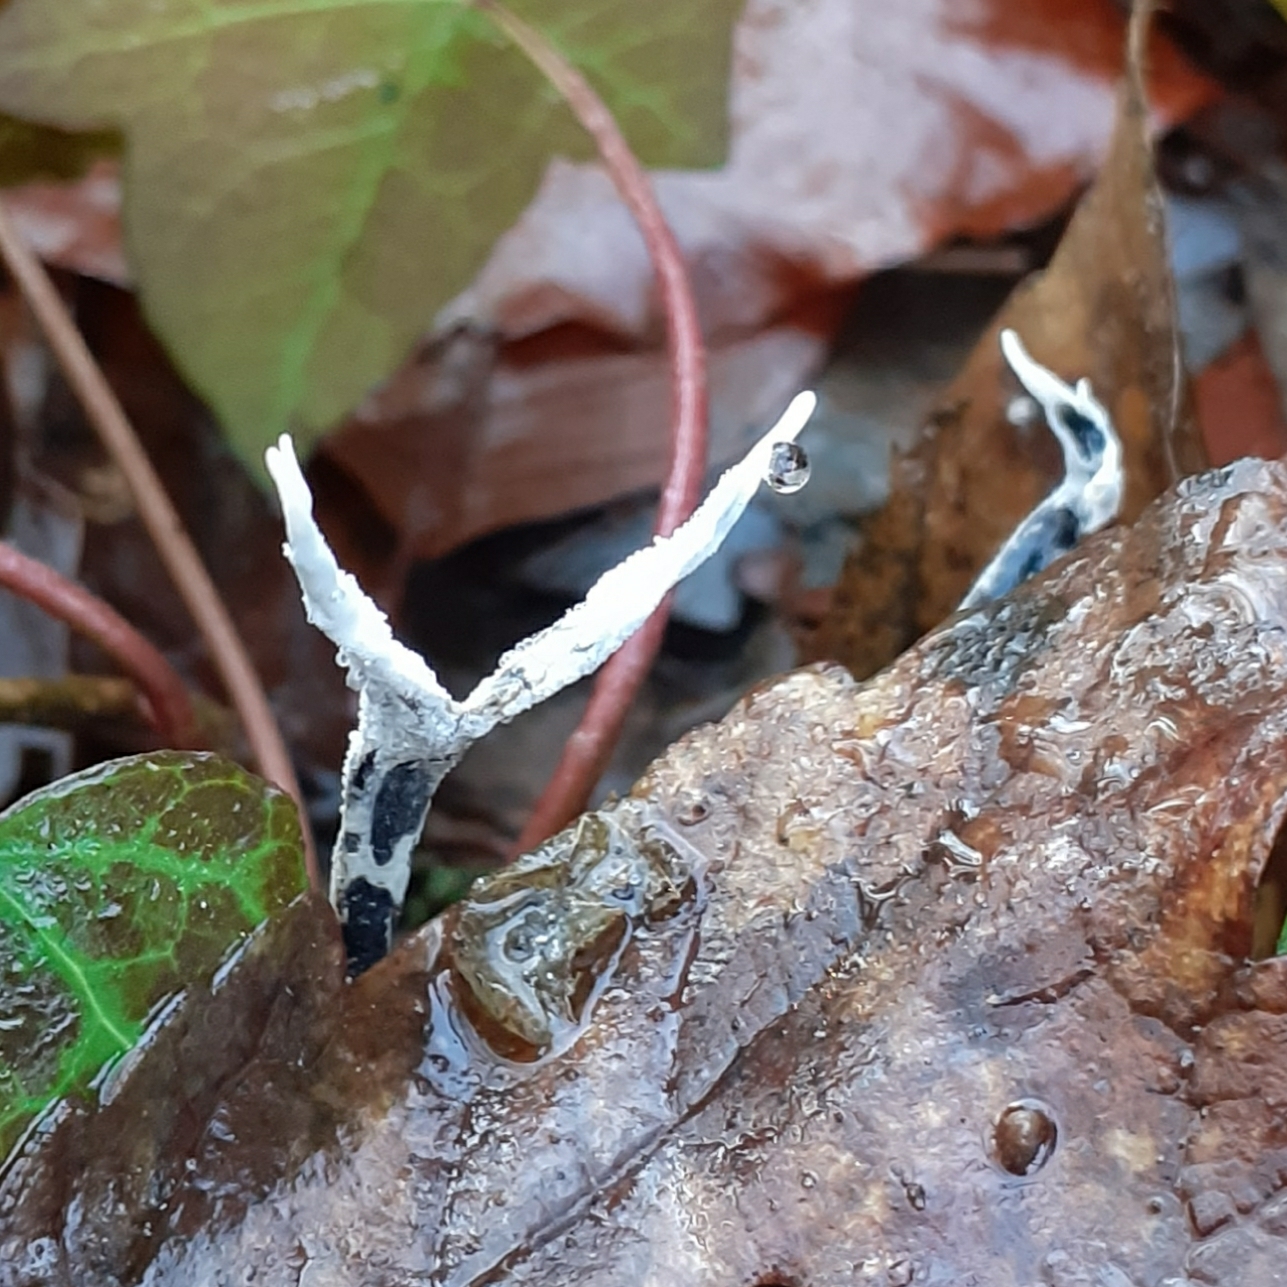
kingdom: Fungi
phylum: Ascomycota
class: Sordariomycetes
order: Xylariales
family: Xylariaceae
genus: Xylaria
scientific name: Xylaria hypoxylon
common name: Candle-snuff fungus
